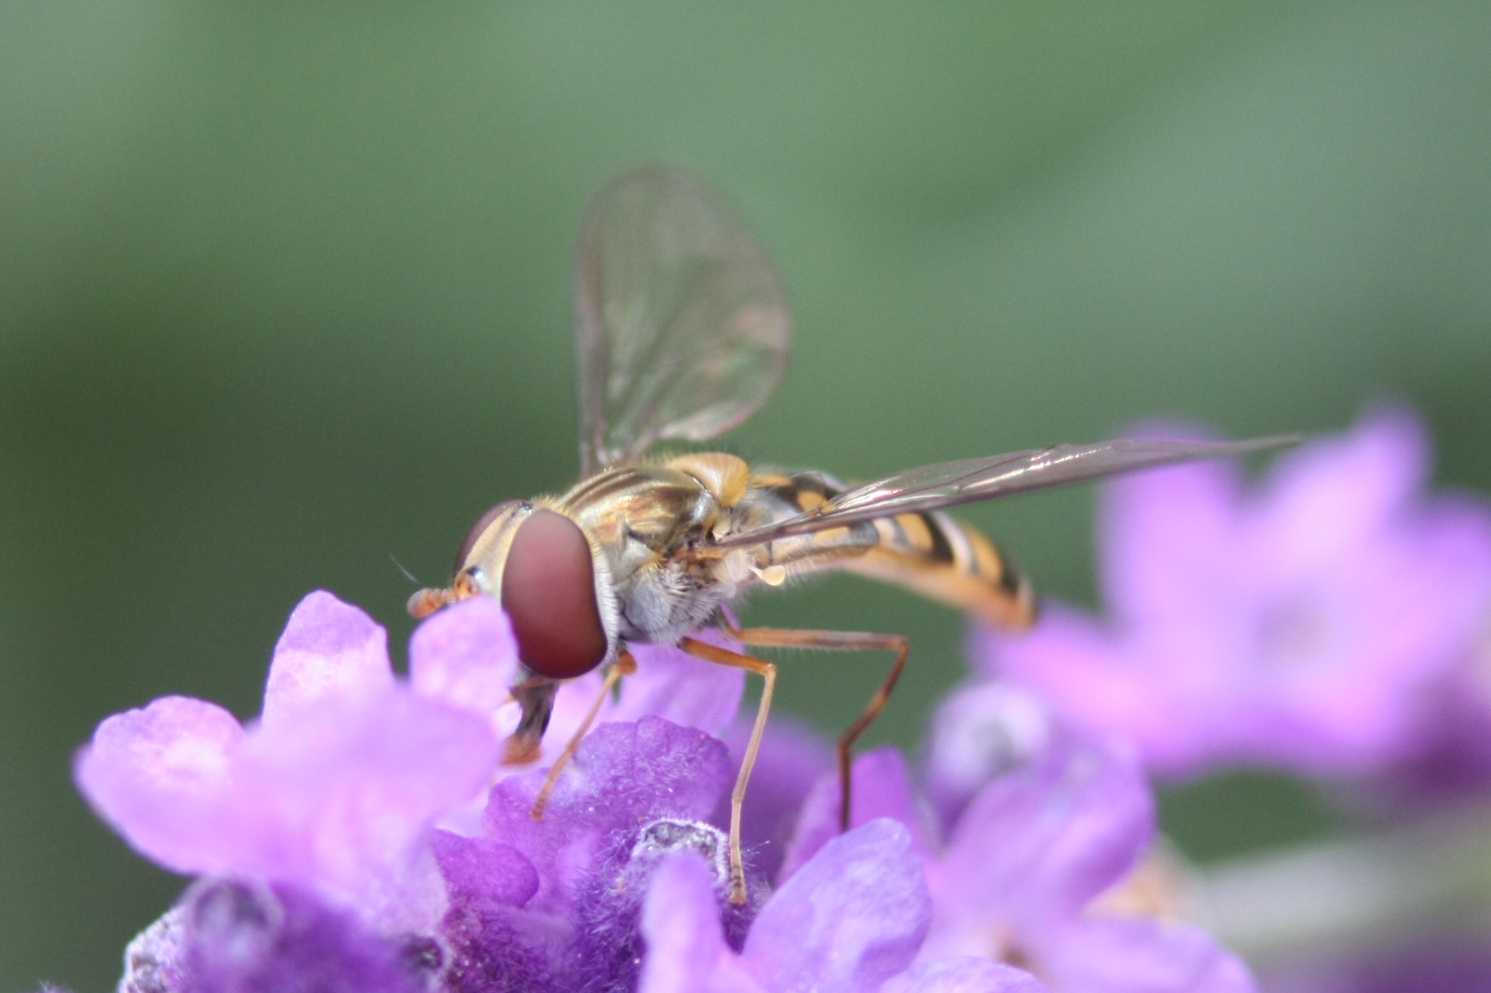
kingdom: Animalia
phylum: Arthropoda
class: Insecta
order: Diptera
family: Syrphidae
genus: Episyrphus
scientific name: Episyrphus balteatus
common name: Marmalade hoverfly
